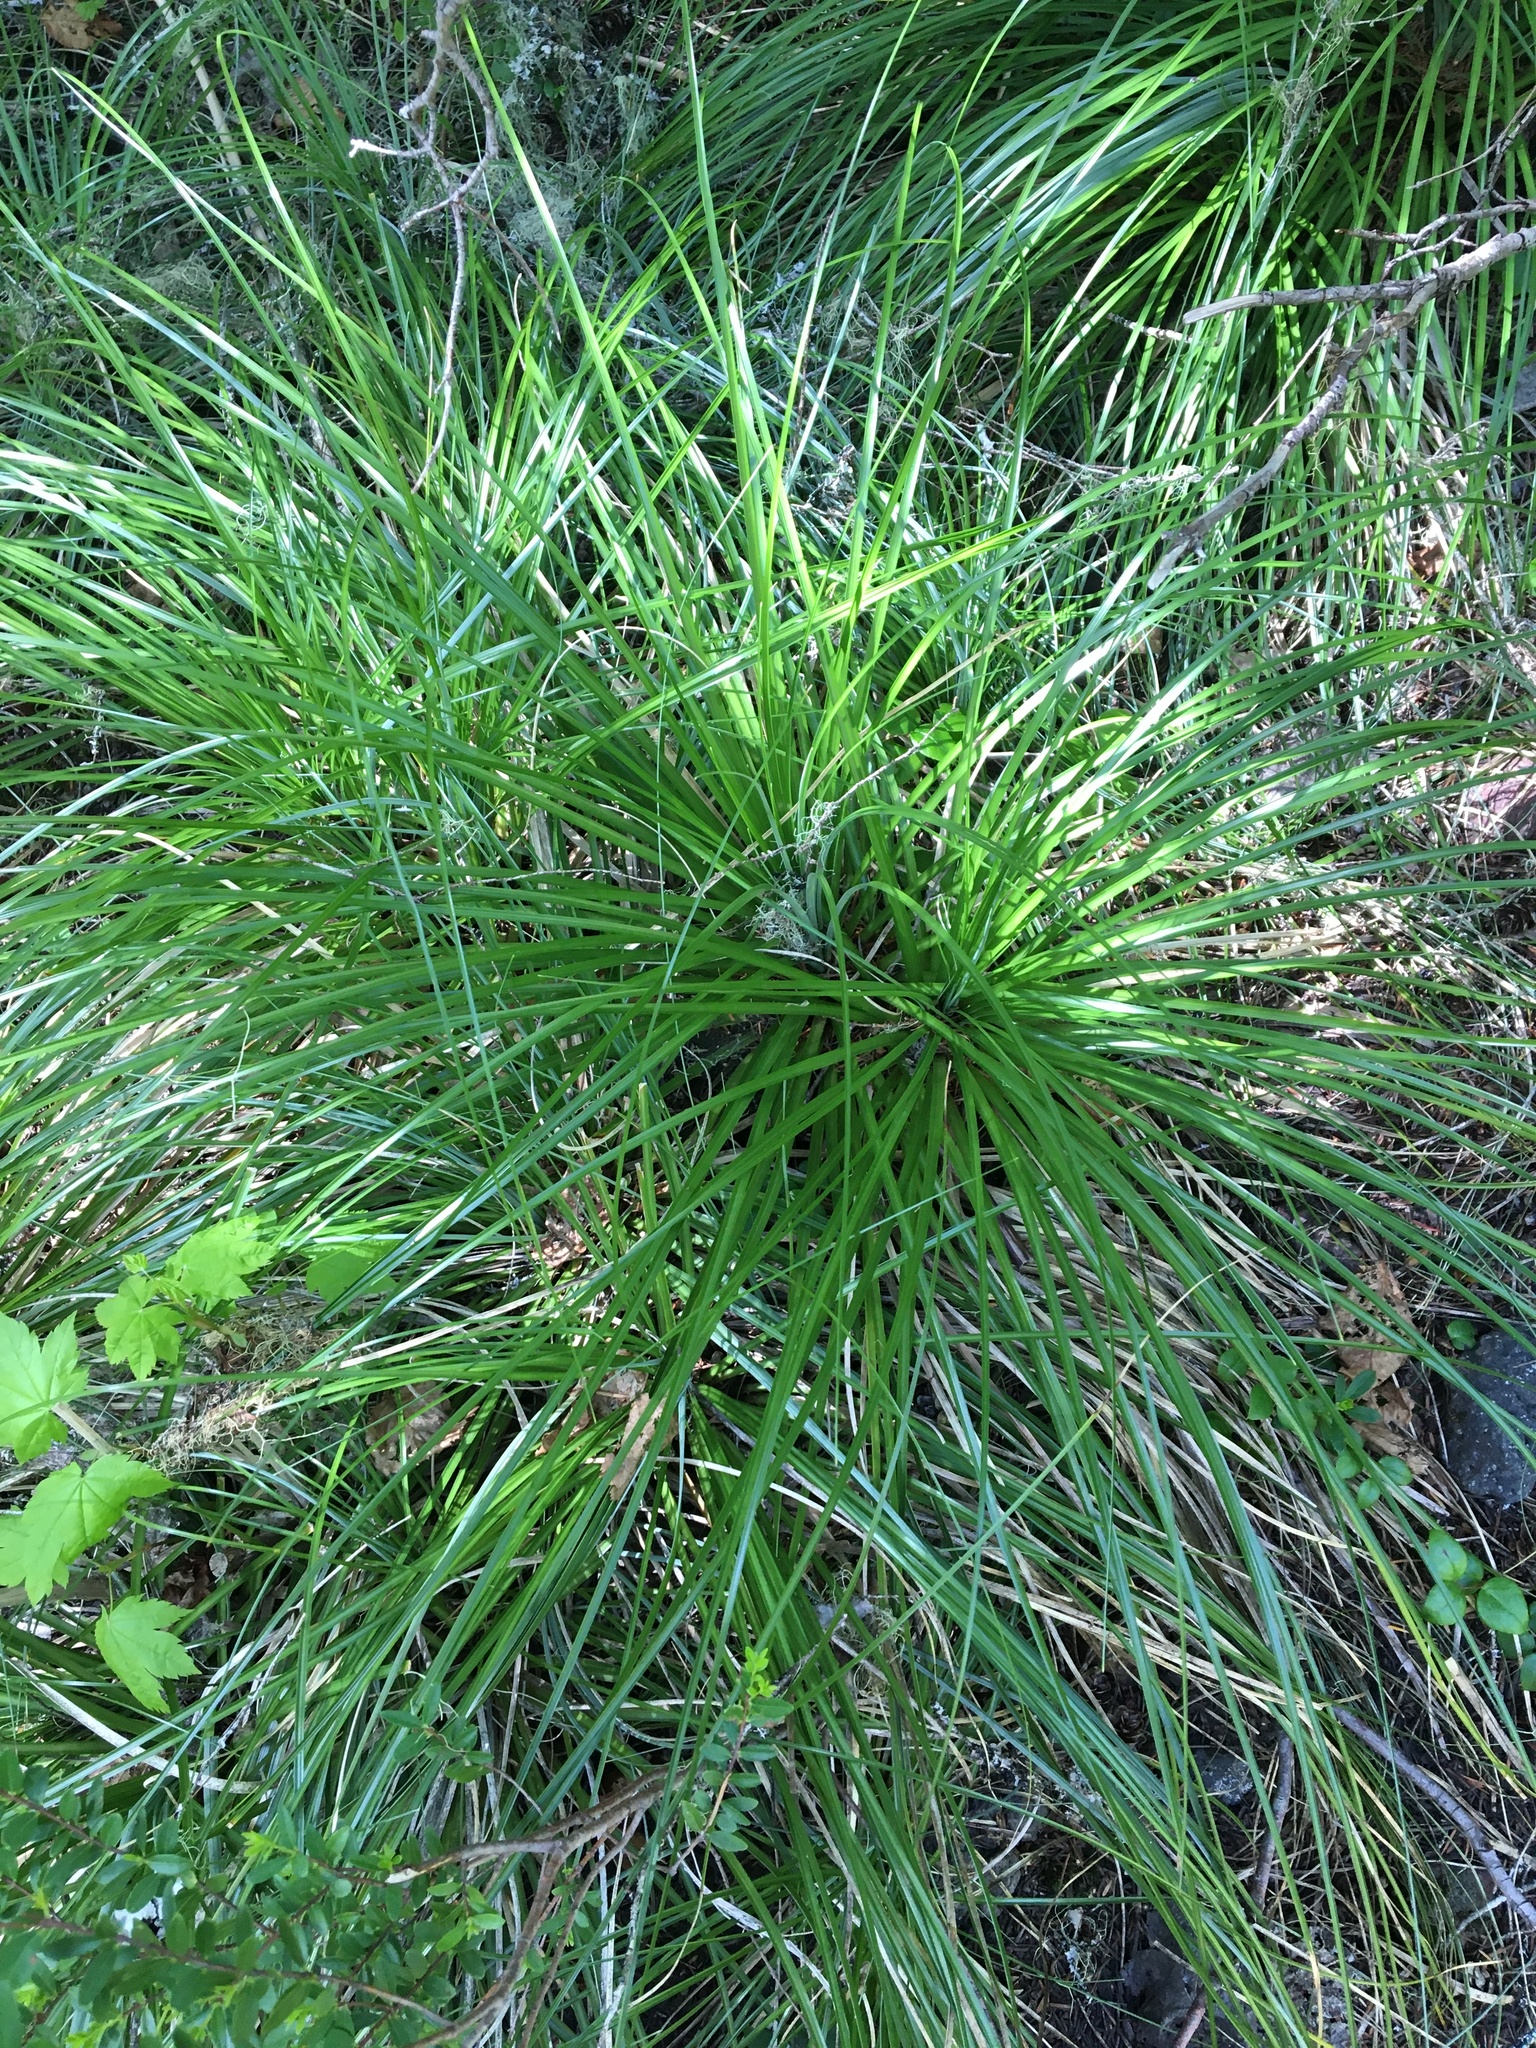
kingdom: Plantae
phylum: Tracheophyta
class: Liliopsida
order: Liliales
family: Melanthiaceae
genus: Xerophyllum
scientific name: Xerophyllum tenax
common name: Bear-grass
